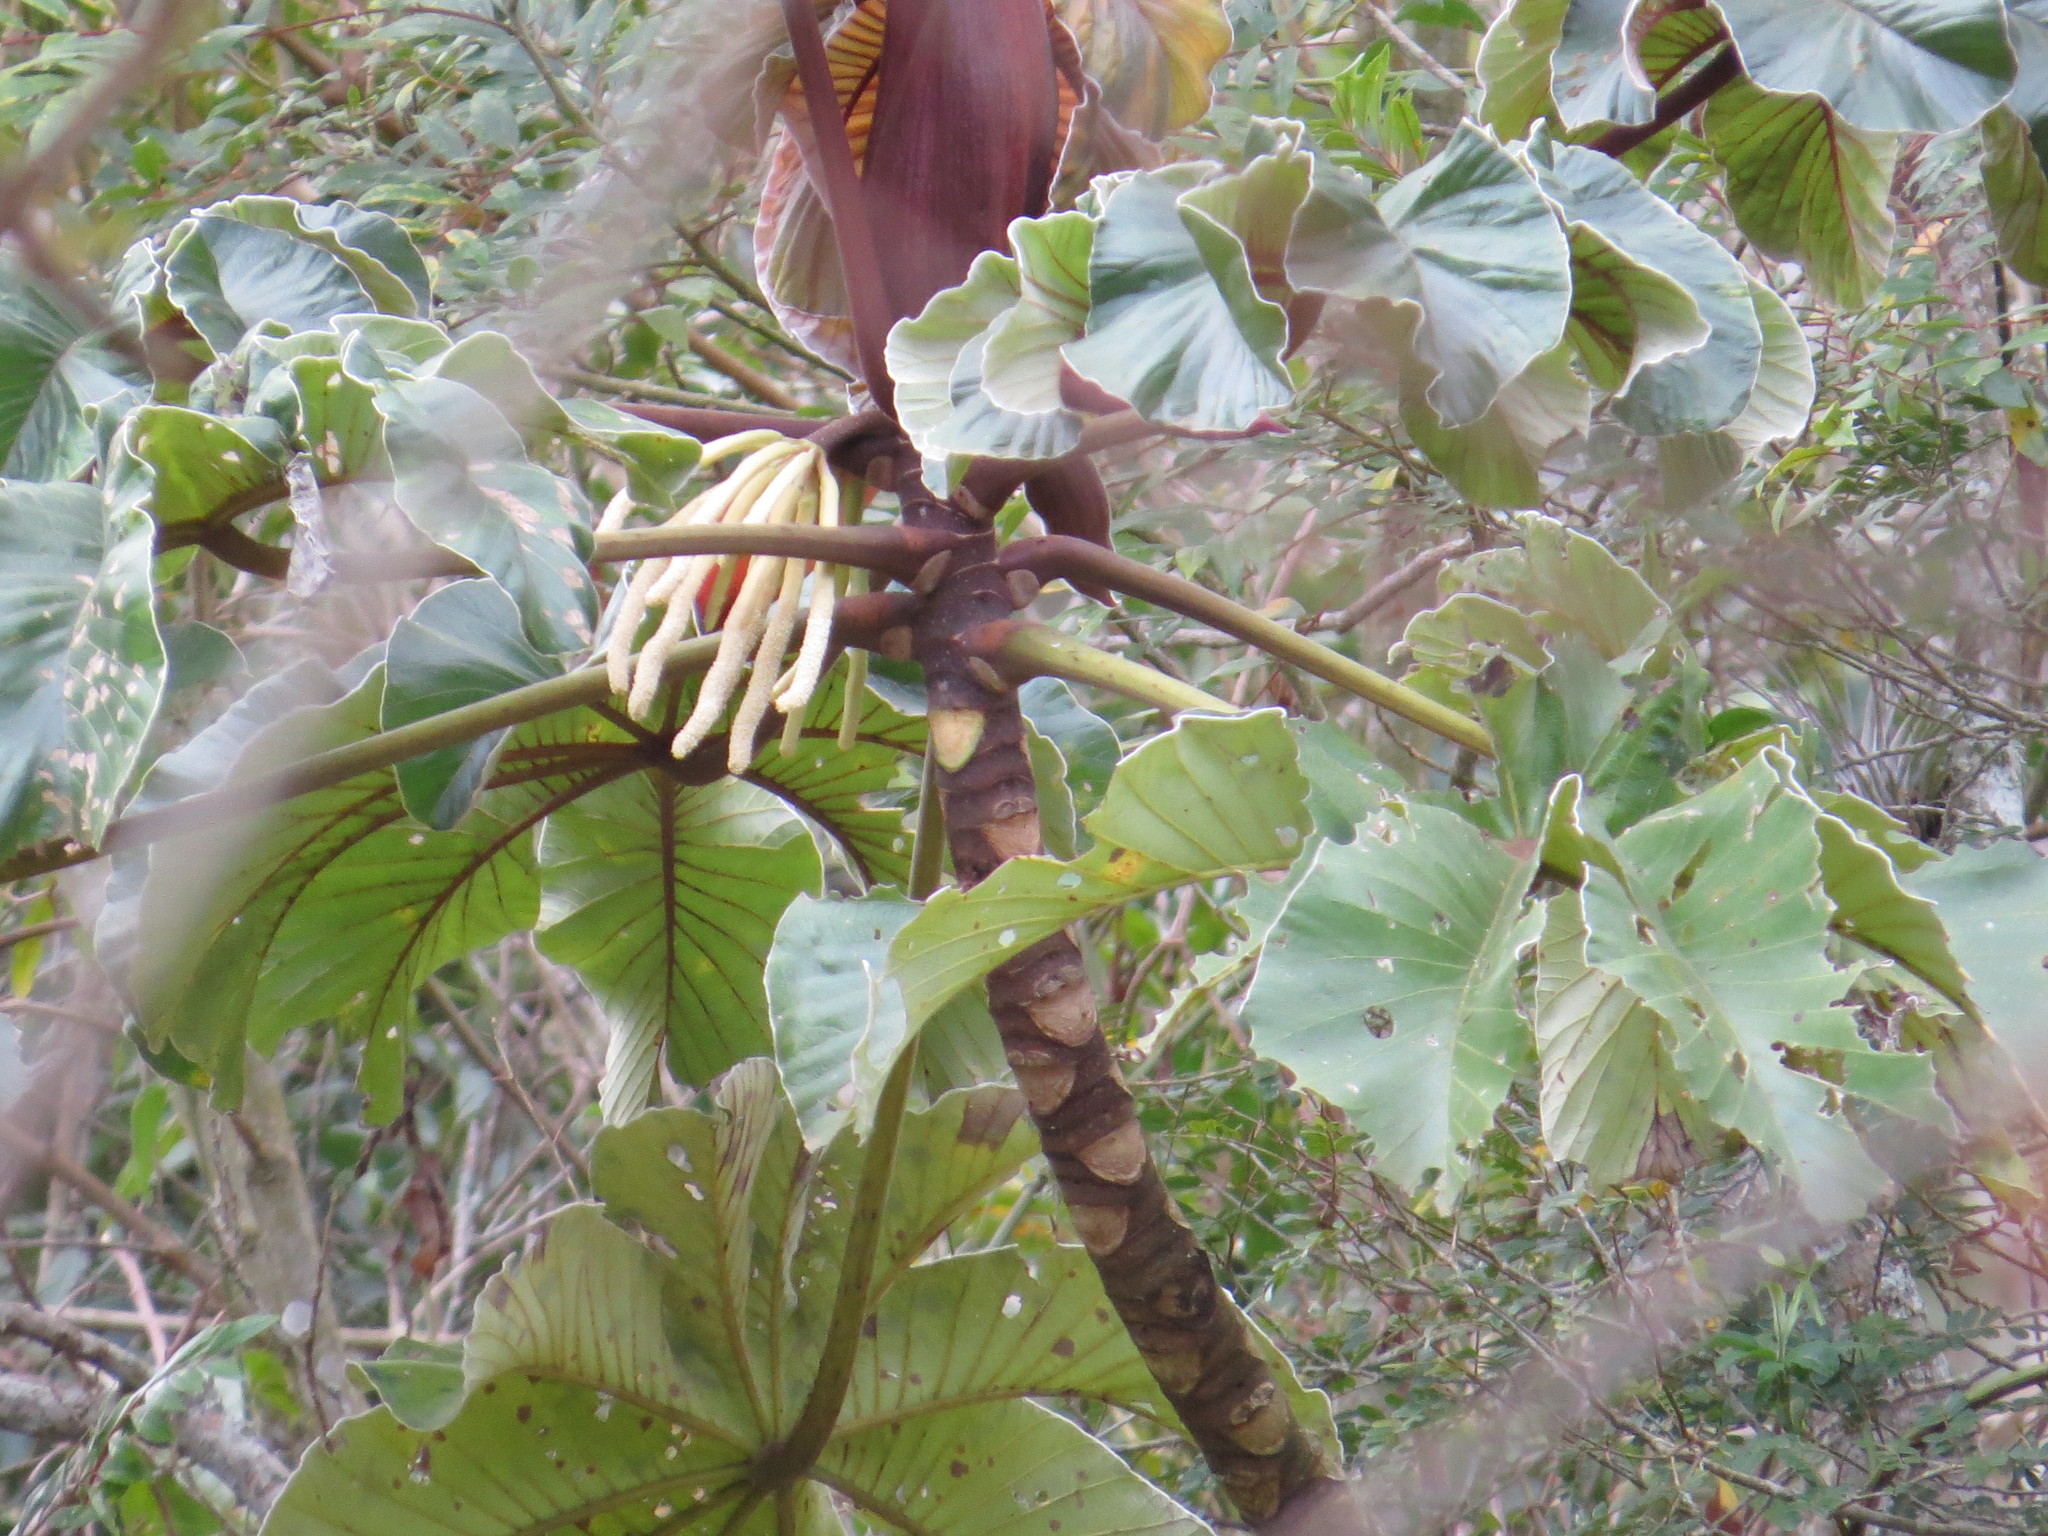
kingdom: Plantae
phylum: Tracheophyta
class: Magnoliopsida
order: Rosales
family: Urticaceae
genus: Cecropia
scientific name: Cecropia glaziovii
